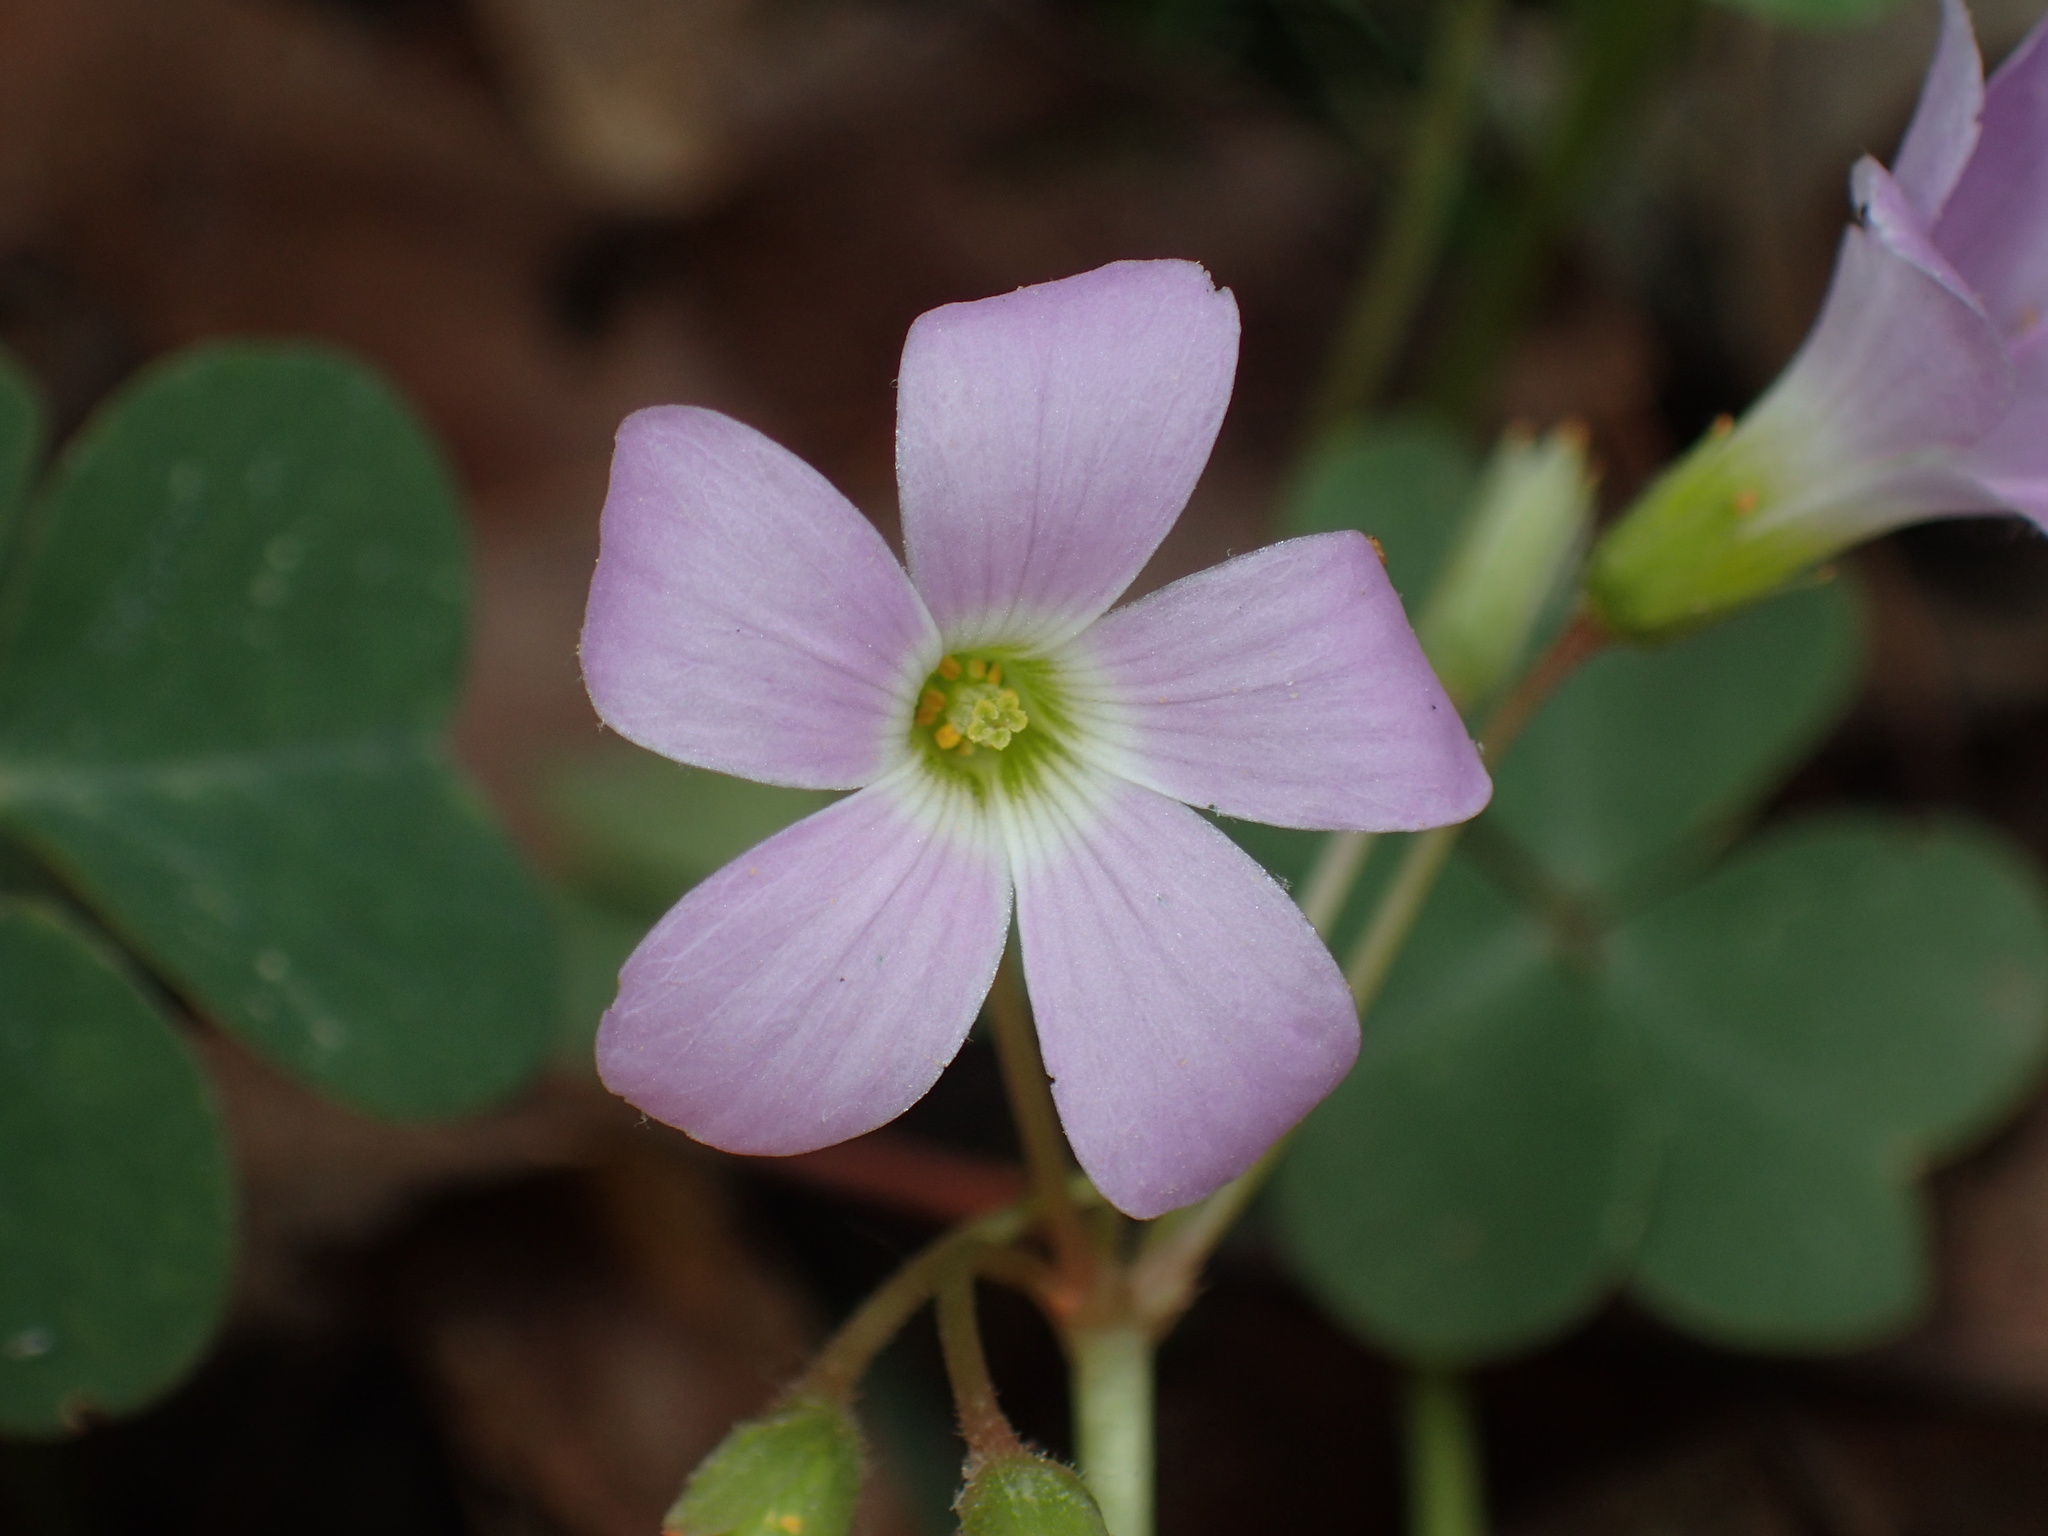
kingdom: Plantae
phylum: Tracheophyta
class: Magnoliopsida
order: Oxalidales
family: Oxalidaceae
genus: Oxalis
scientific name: Oxalis violacea
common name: Violet wood-sorrel
